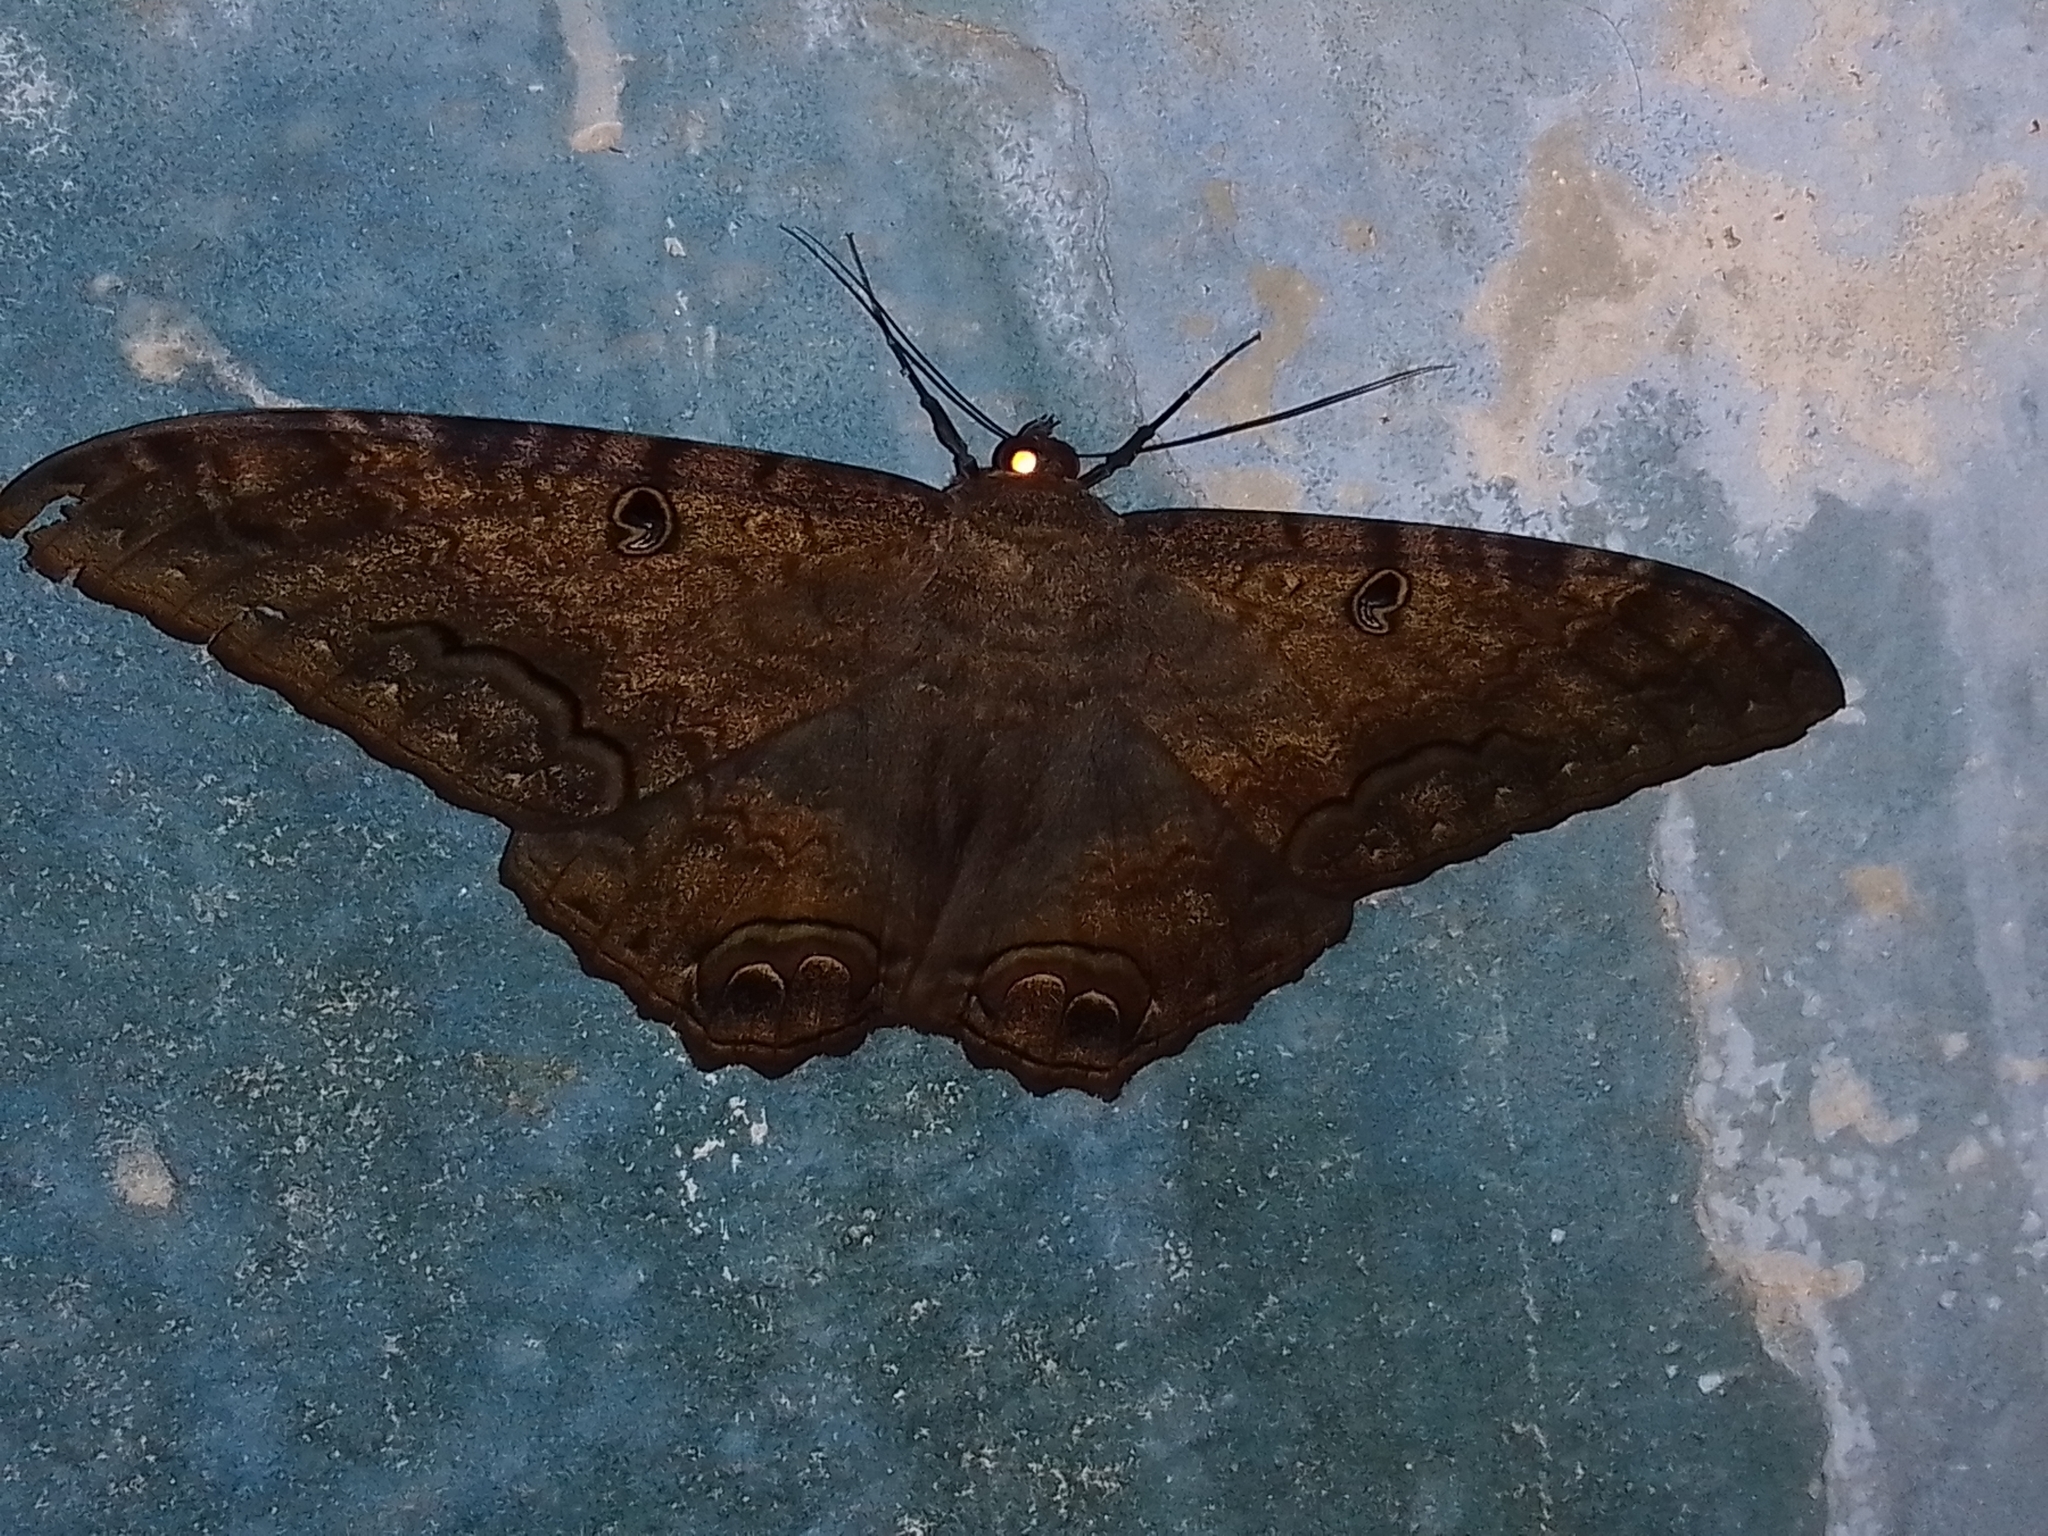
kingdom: Animalia
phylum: Arthropoda
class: Insecta
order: Lepidoptera
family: Erebidae
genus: Ascalapha
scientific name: Ascalapha odorata
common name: Black witch
